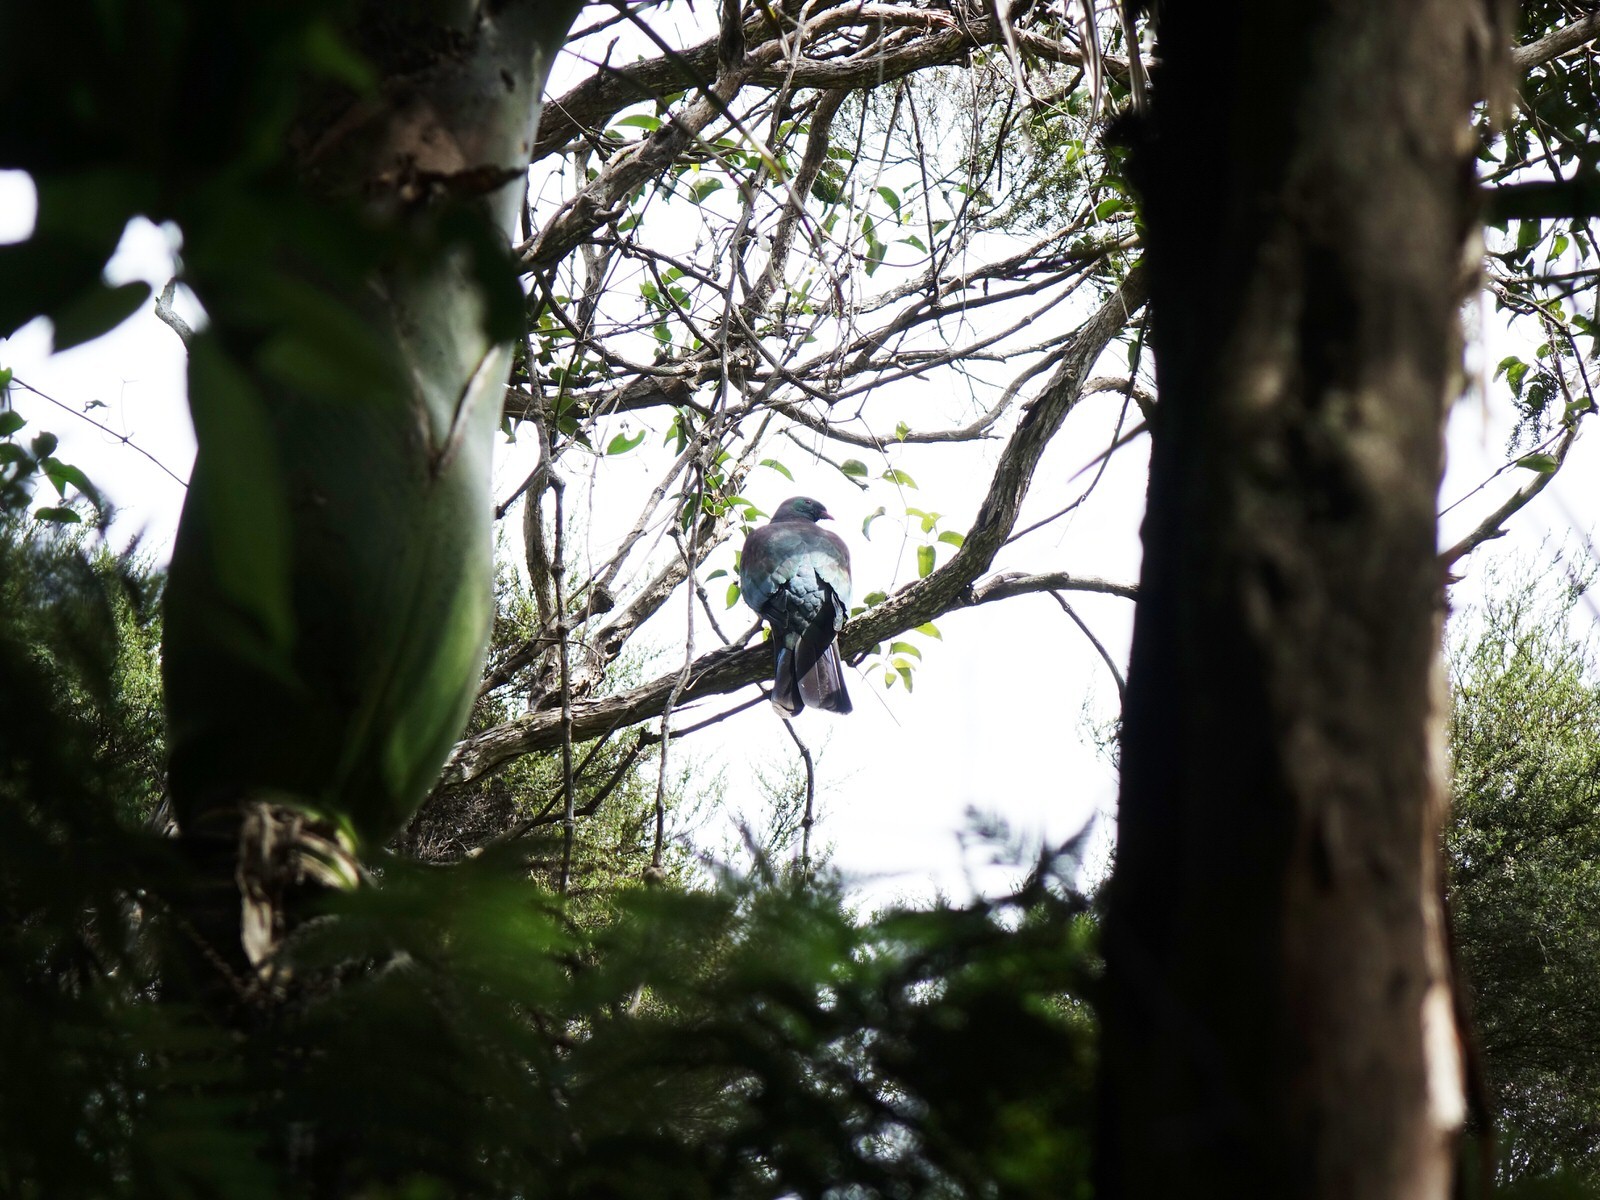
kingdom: Animalia
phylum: Chordata
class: Aves
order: Columbiformes
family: Columbidae
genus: Hemiphaga
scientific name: Hemiphaga novaeseelandiae
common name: New zealand pigeon
